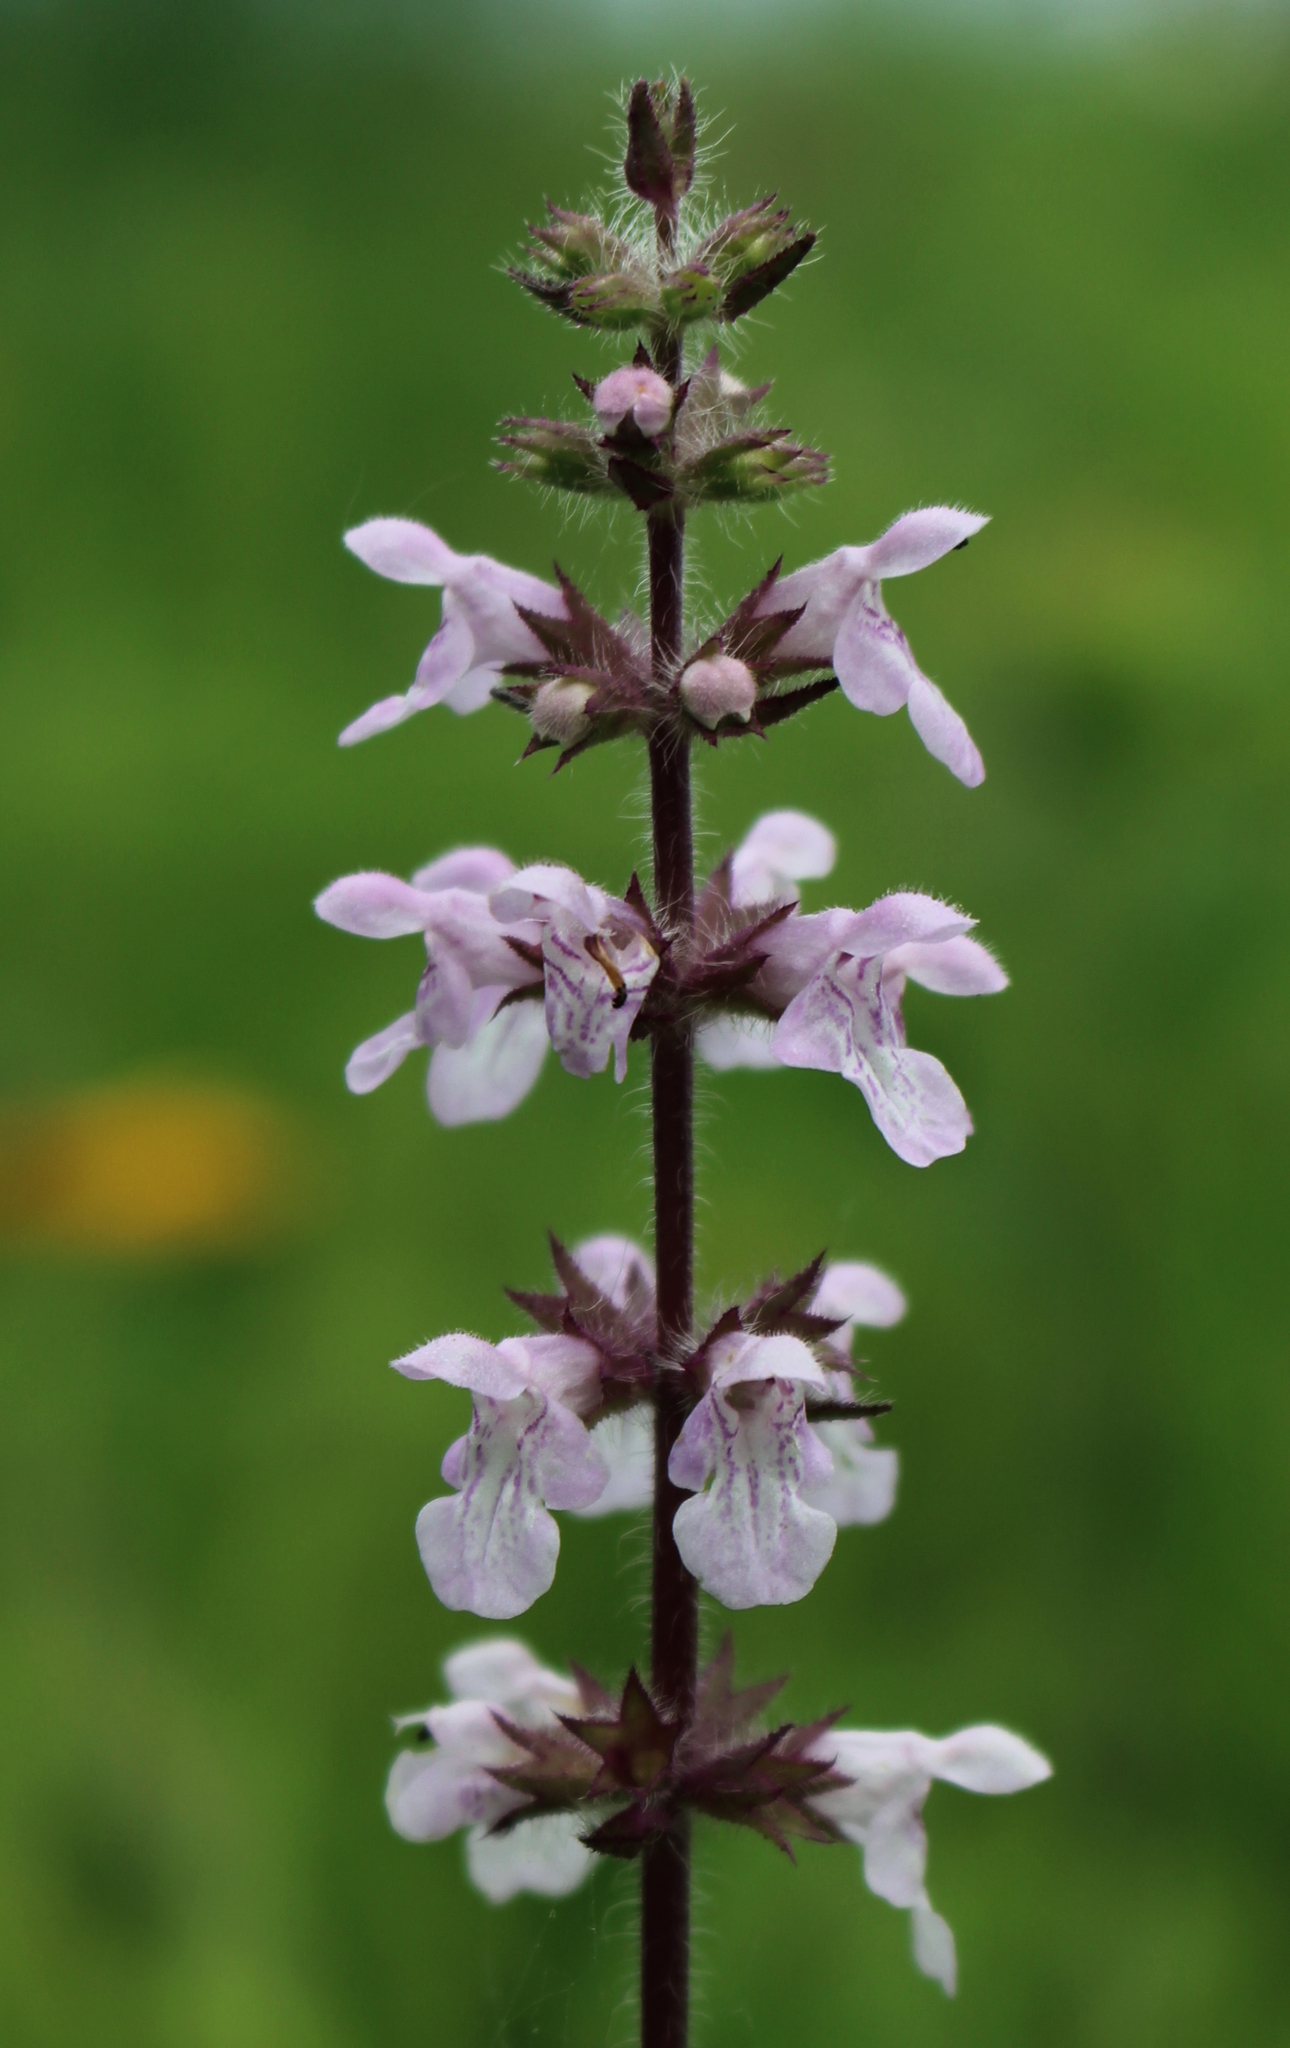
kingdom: Plantae
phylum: Tracheophyta
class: Magnoliopsida
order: Lamiales
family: Lamiaceae
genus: Stachys
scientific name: Stachys hispida
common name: Hispid hedge-nettle
